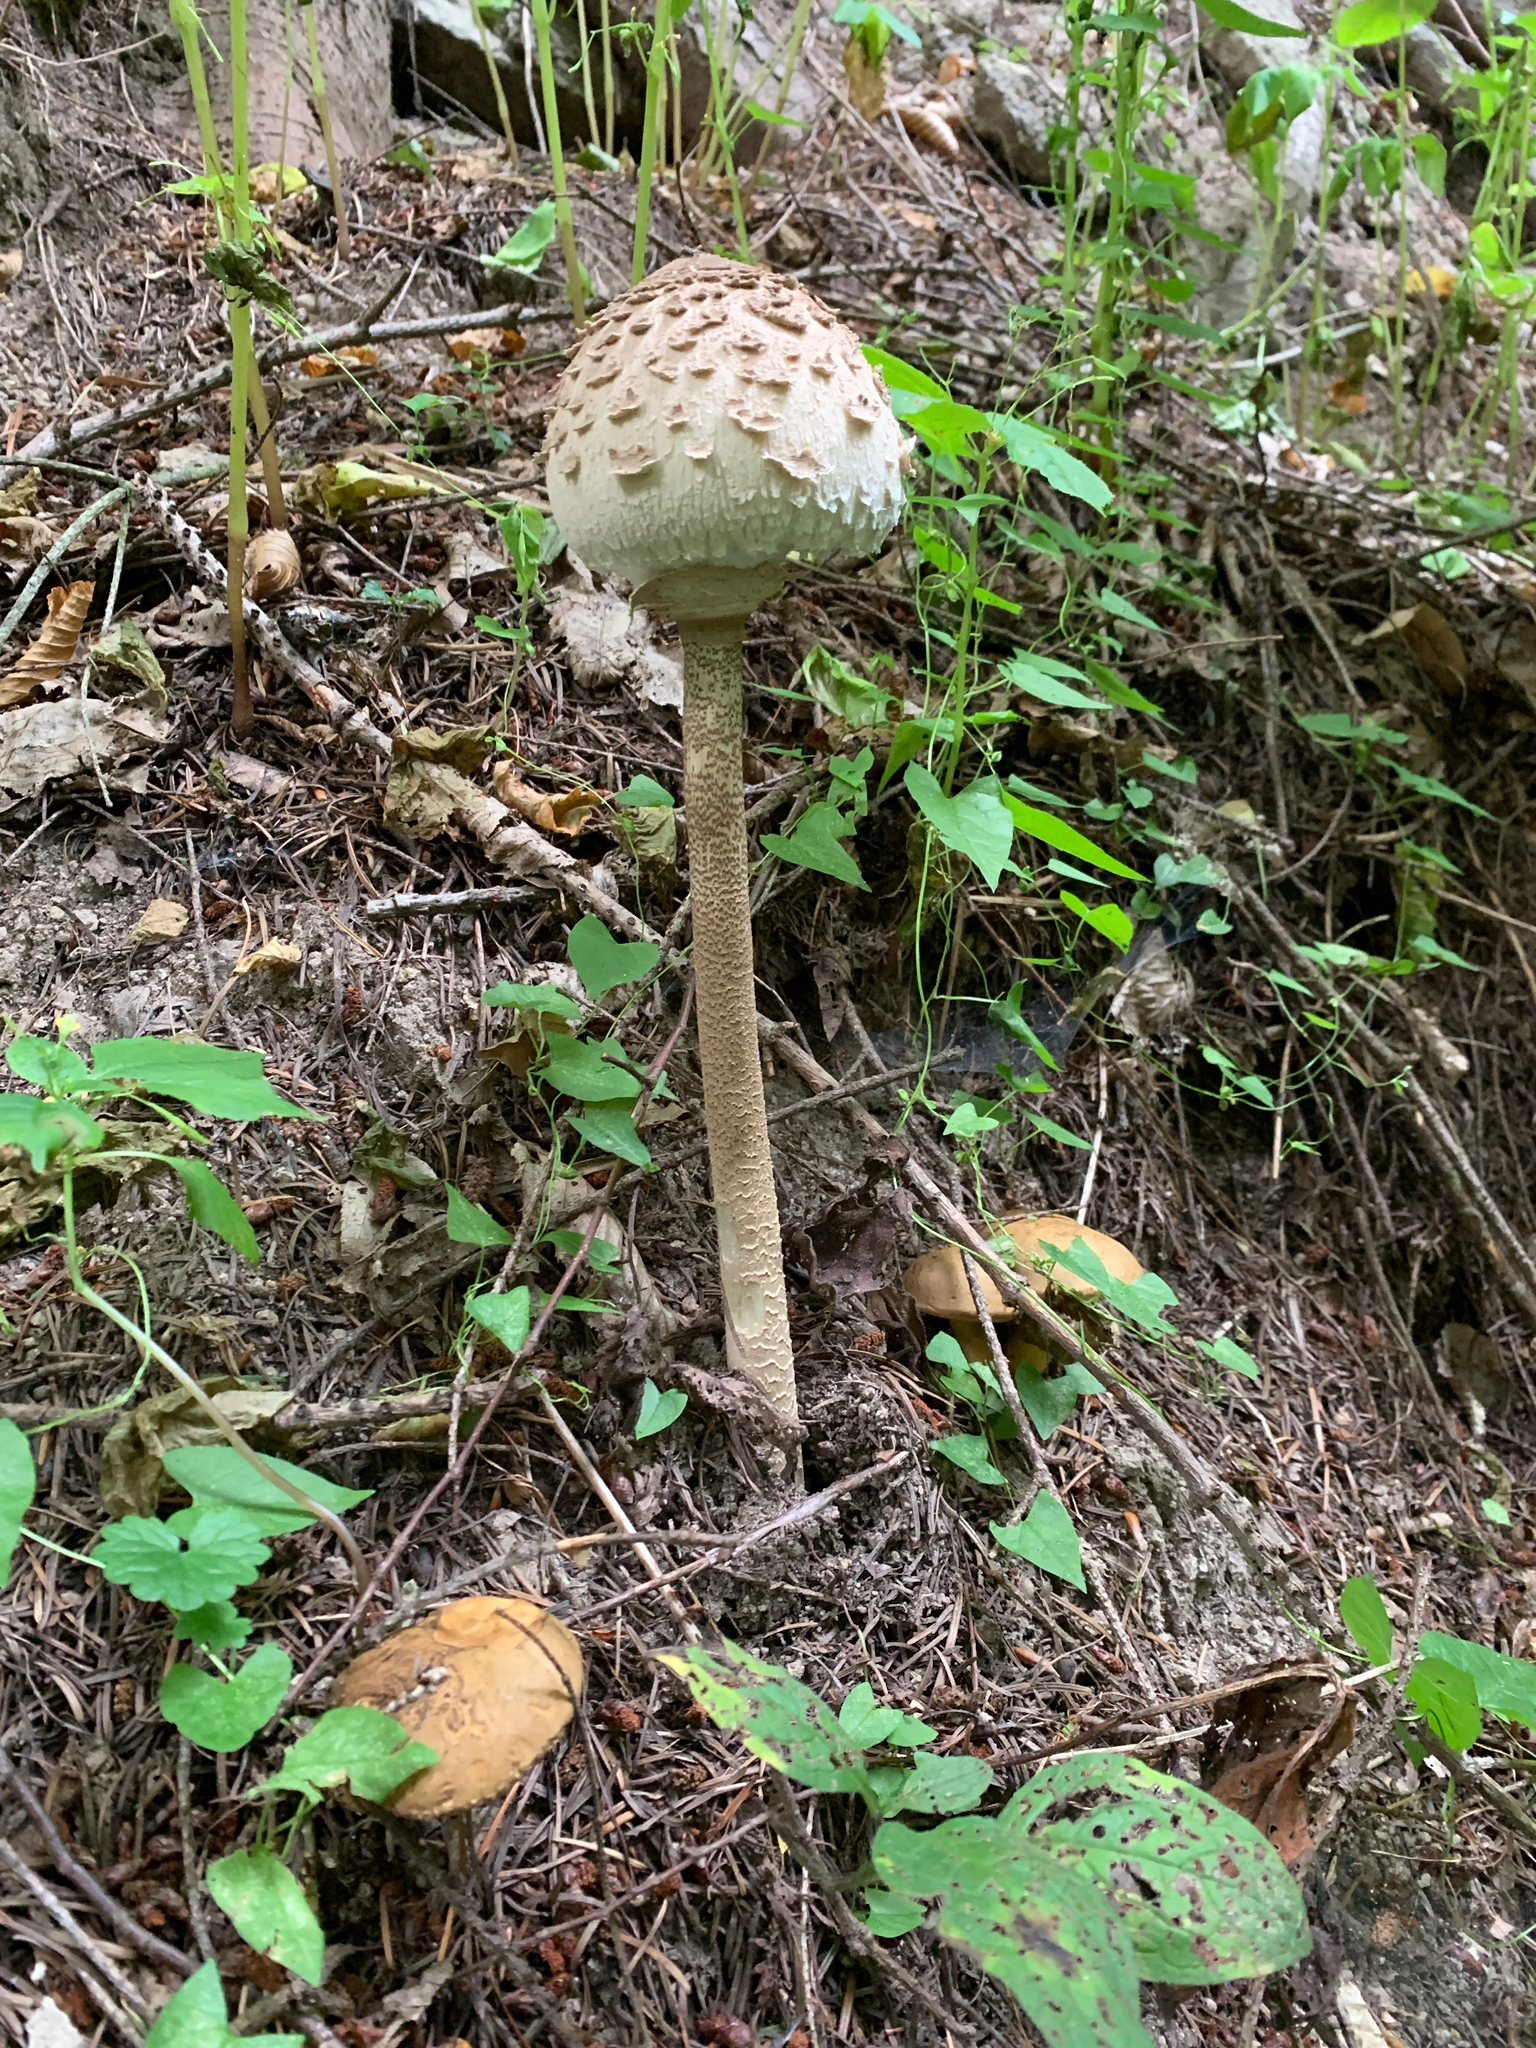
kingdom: Fungi
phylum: Basidiomycota
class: Agaricomycetes
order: Agaricales
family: Agaricaceae
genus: Macrolepiota
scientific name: Macrolepiota procera
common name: Parasol
